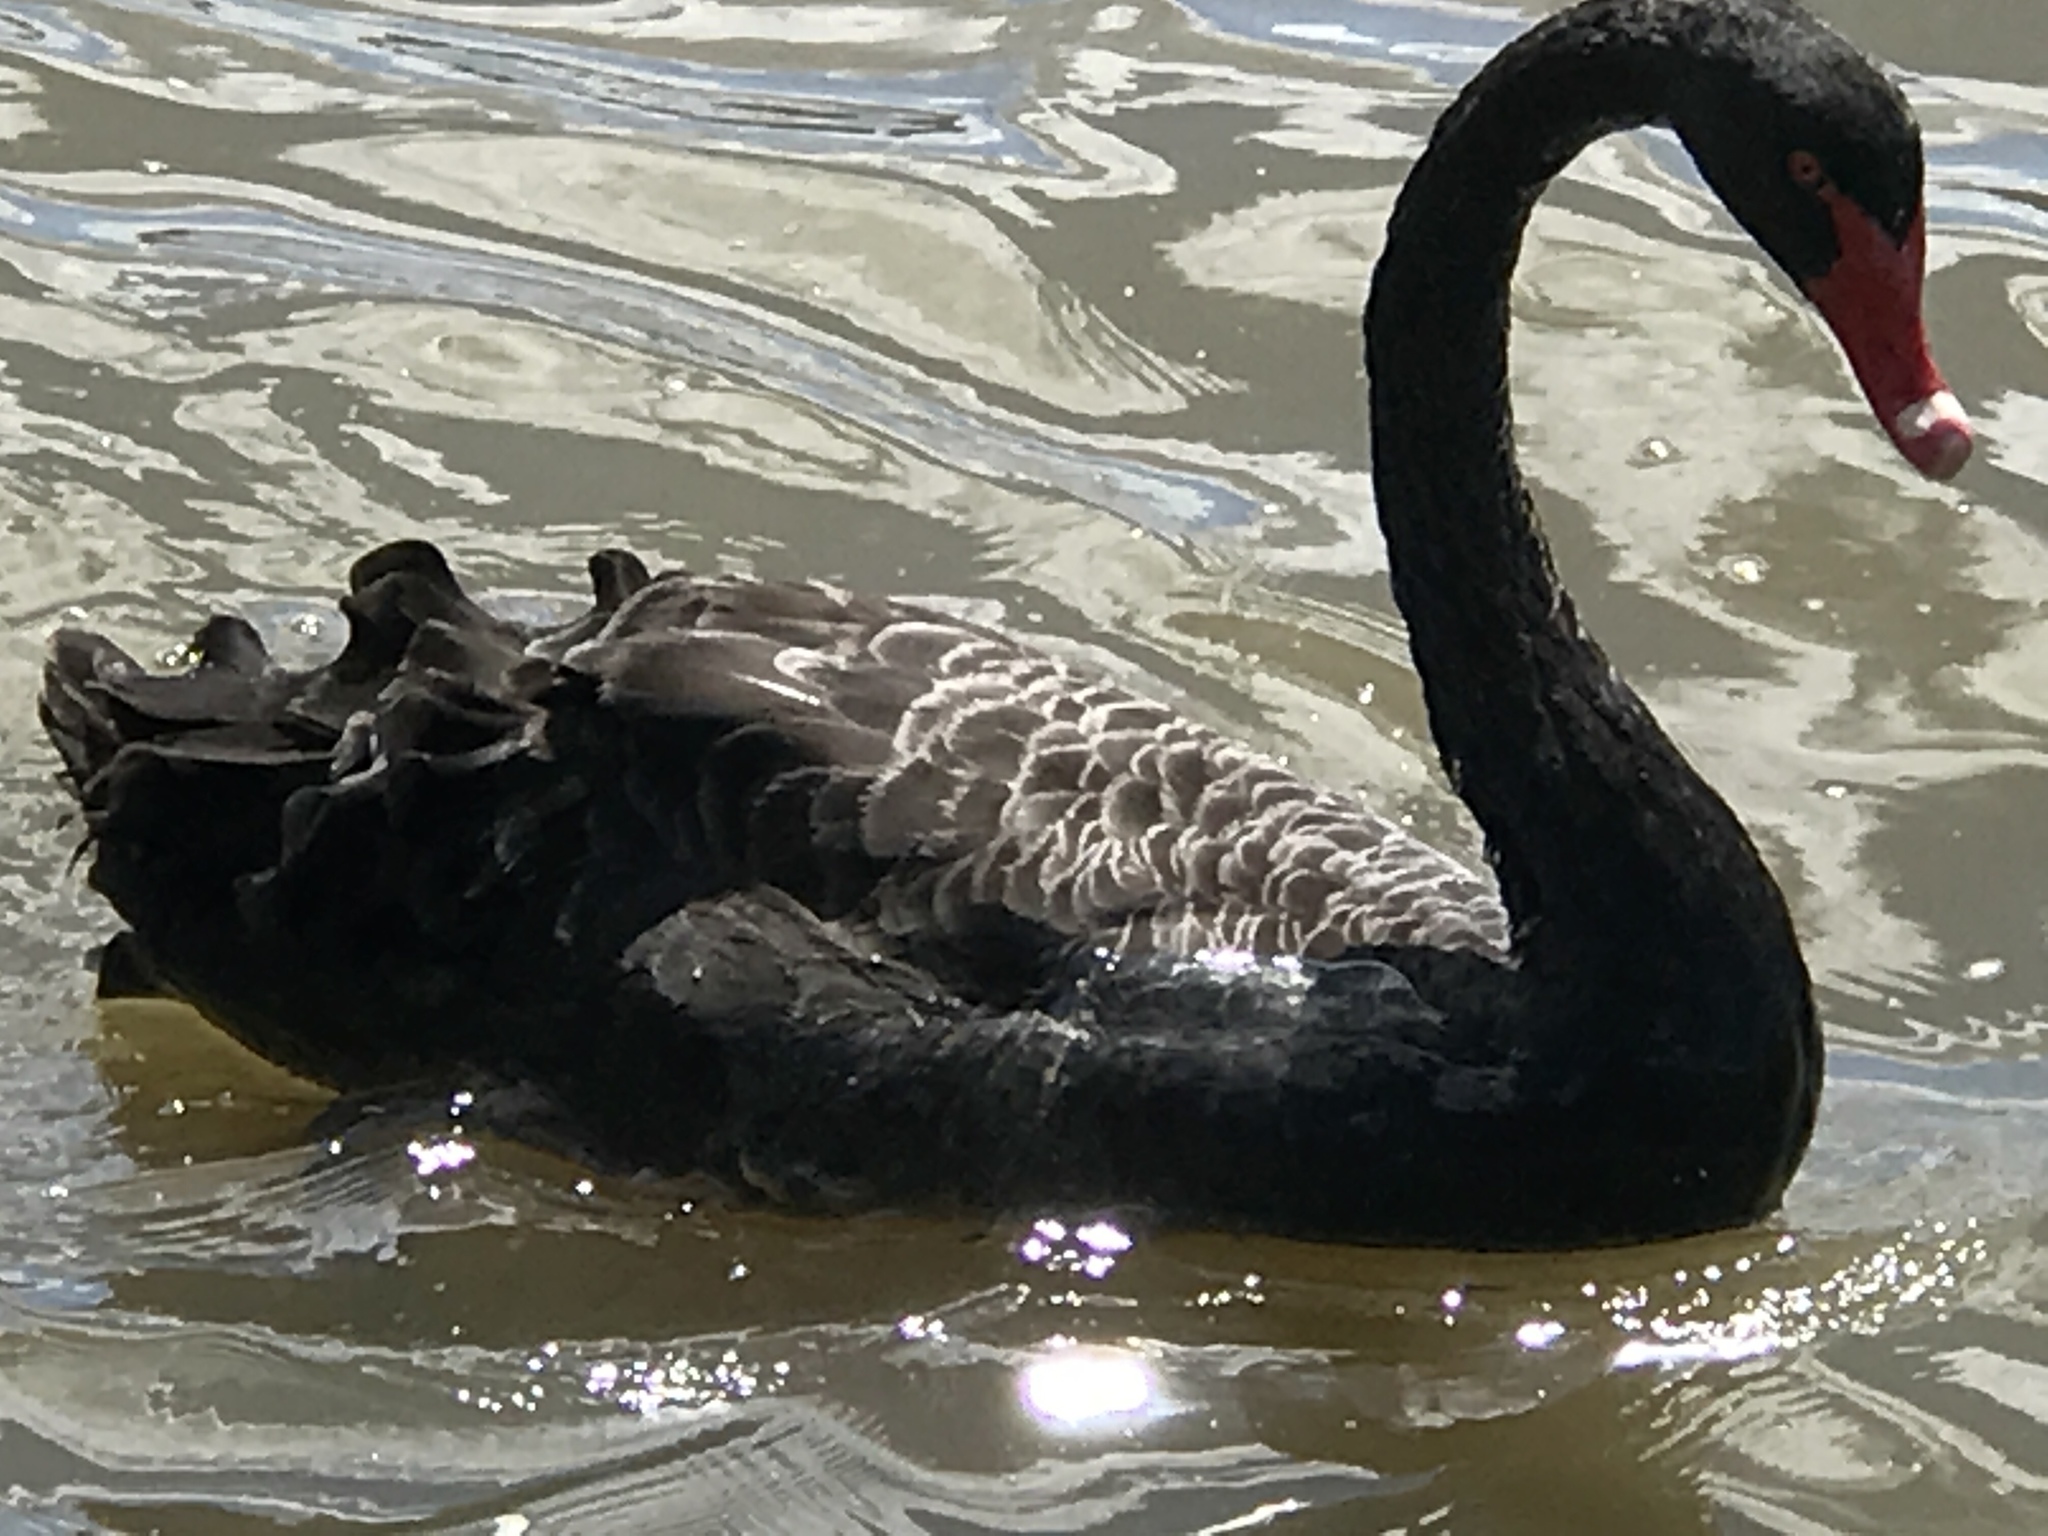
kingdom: Animalia
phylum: Chordata
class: Aves
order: Anseriformes
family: Anatidae
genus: Cygnus
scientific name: Cygnus atratus
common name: Black swan
